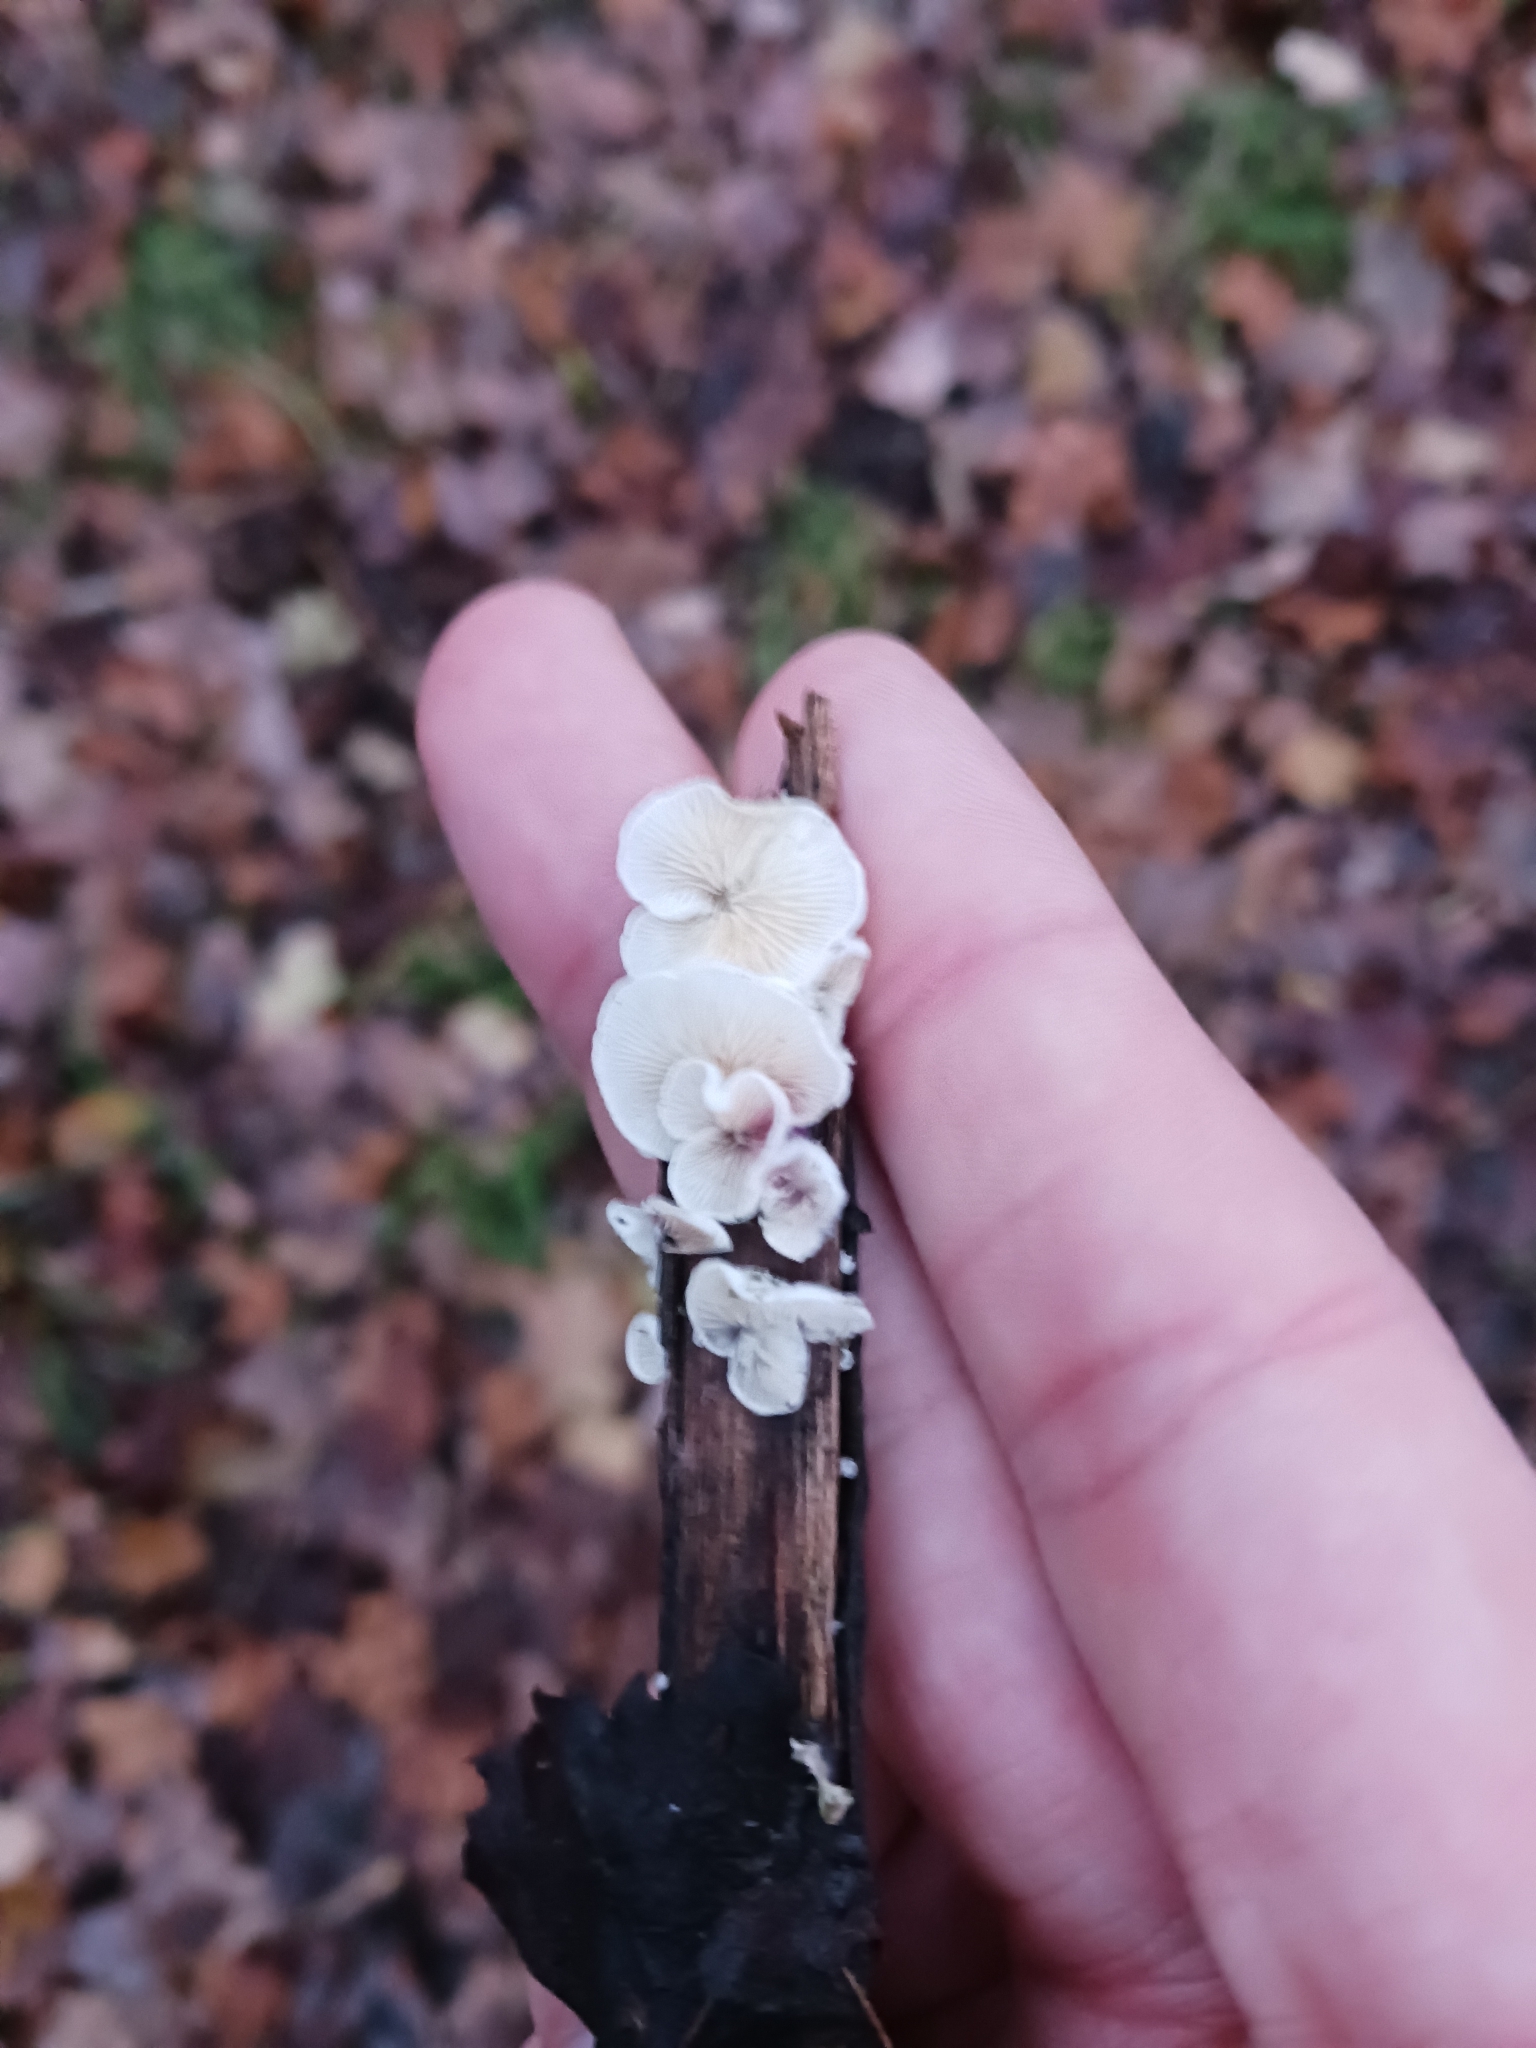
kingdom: Fungi
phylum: Basidiomycota
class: Agaricomycetes
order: Agaricales
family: Crepidotaceae
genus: Crepidotus
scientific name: Crepidotus
